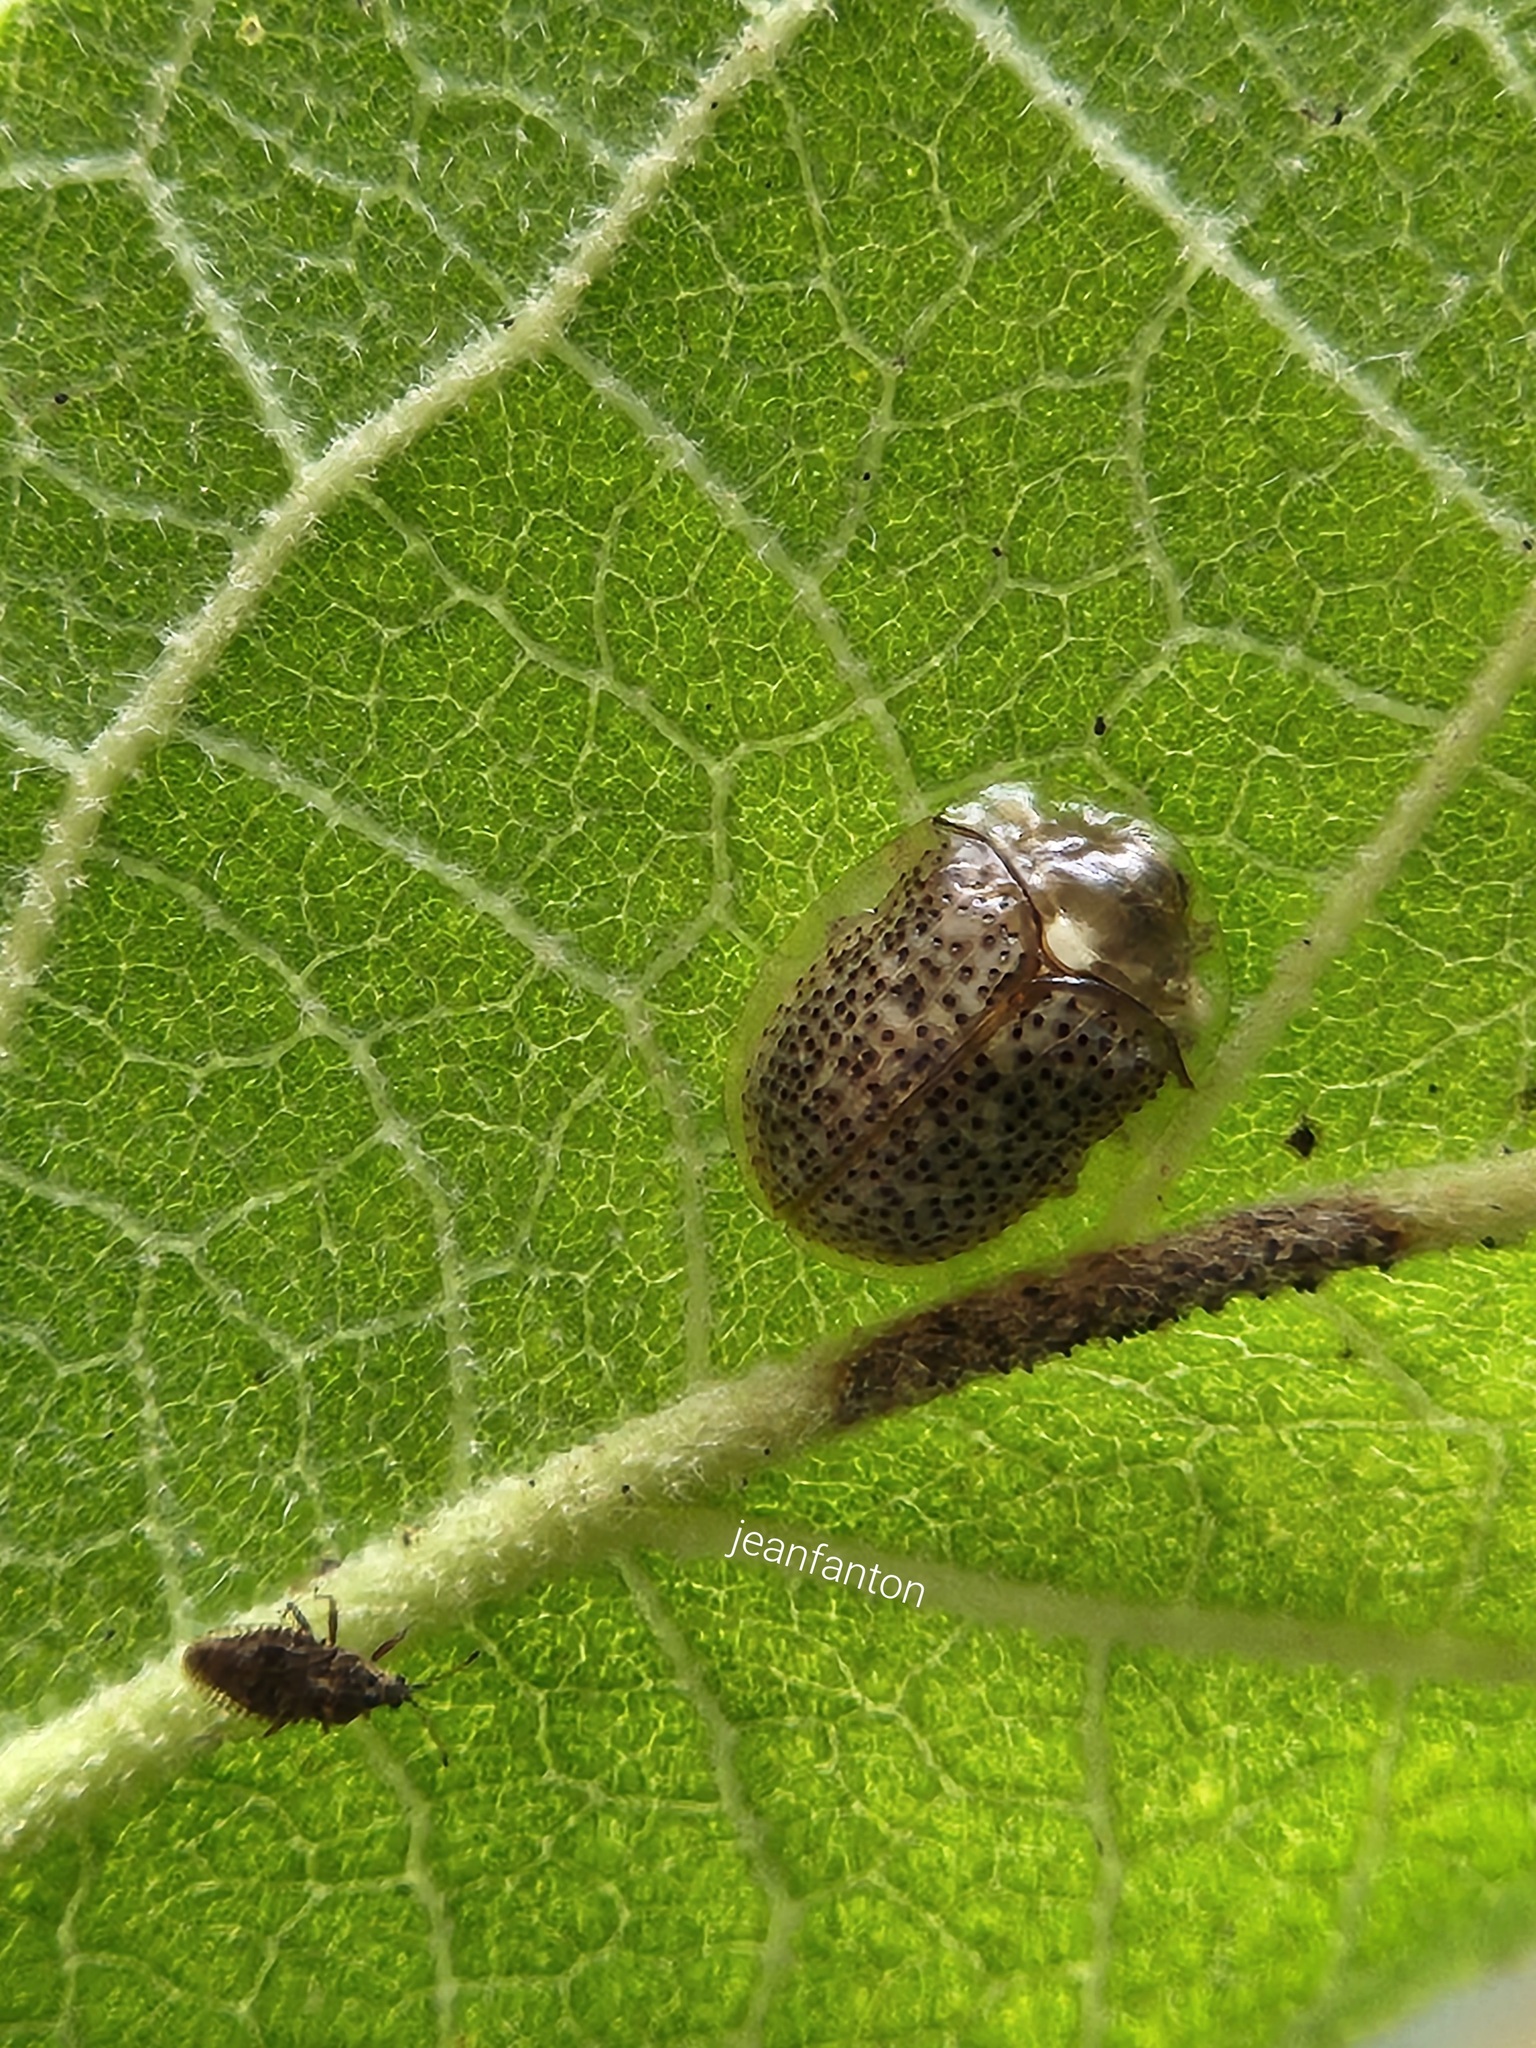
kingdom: Animalia
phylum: Arthropoda
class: Insecta
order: Coleoptera
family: Chrysomelidae
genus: Cistudinella
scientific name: Cistudinella obducta
